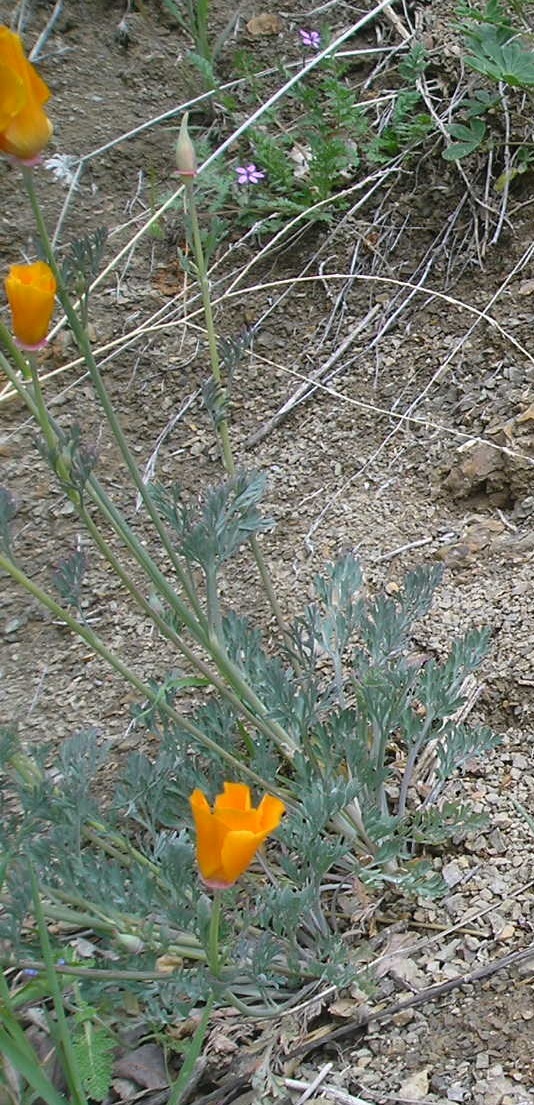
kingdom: Plantae
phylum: Tracheophyta
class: Magnoliopsida
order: Ranunculales
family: Papaveraceae
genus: Eschscholzia
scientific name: Eschscholzia californica
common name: California poppy
